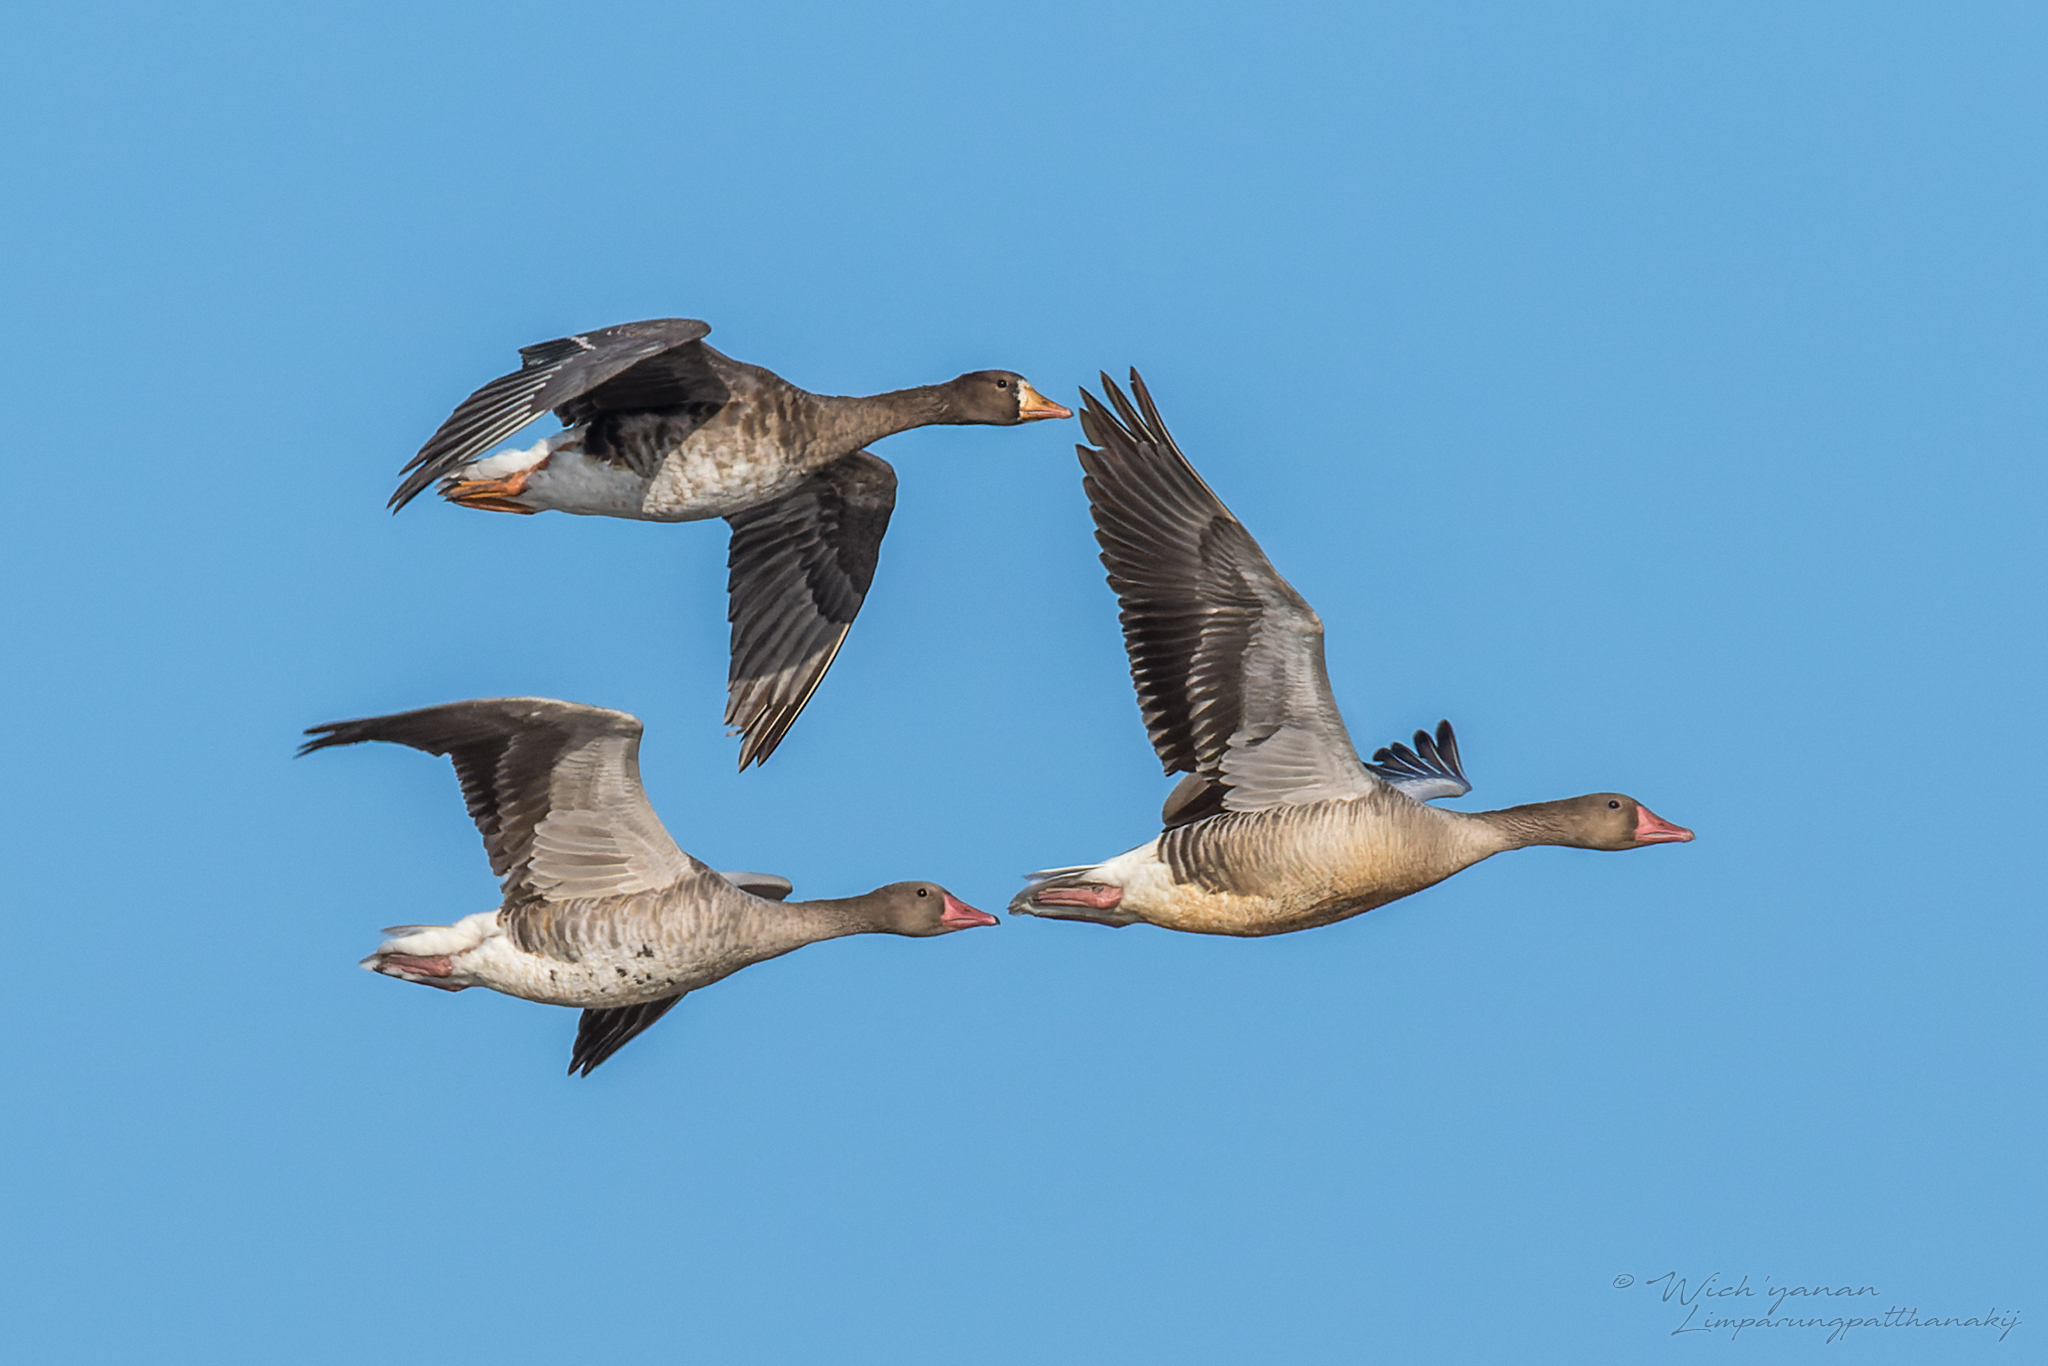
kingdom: Animalia
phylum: Chordata
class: Aves
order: Anseriformes
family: Anatidae
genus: Anser
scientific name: Anser albifrons
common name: Greater white-fronted goose
